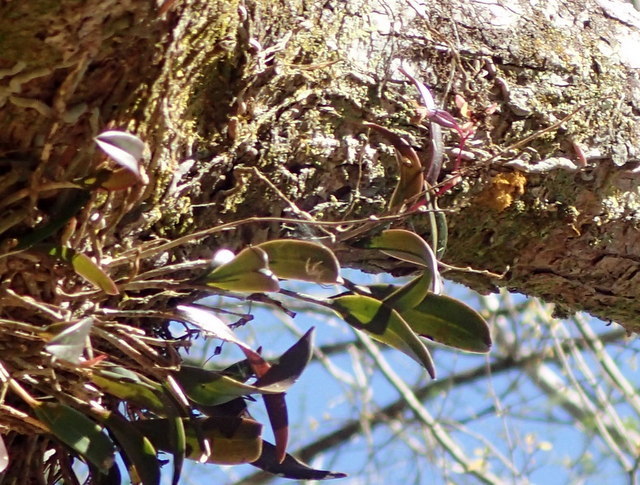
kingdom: Plantae
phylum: Tracheophyta
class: Liliopsida
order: Asparagales
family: Orchidaceae
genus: Epidendrum
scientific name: Epidendrum conopseum
